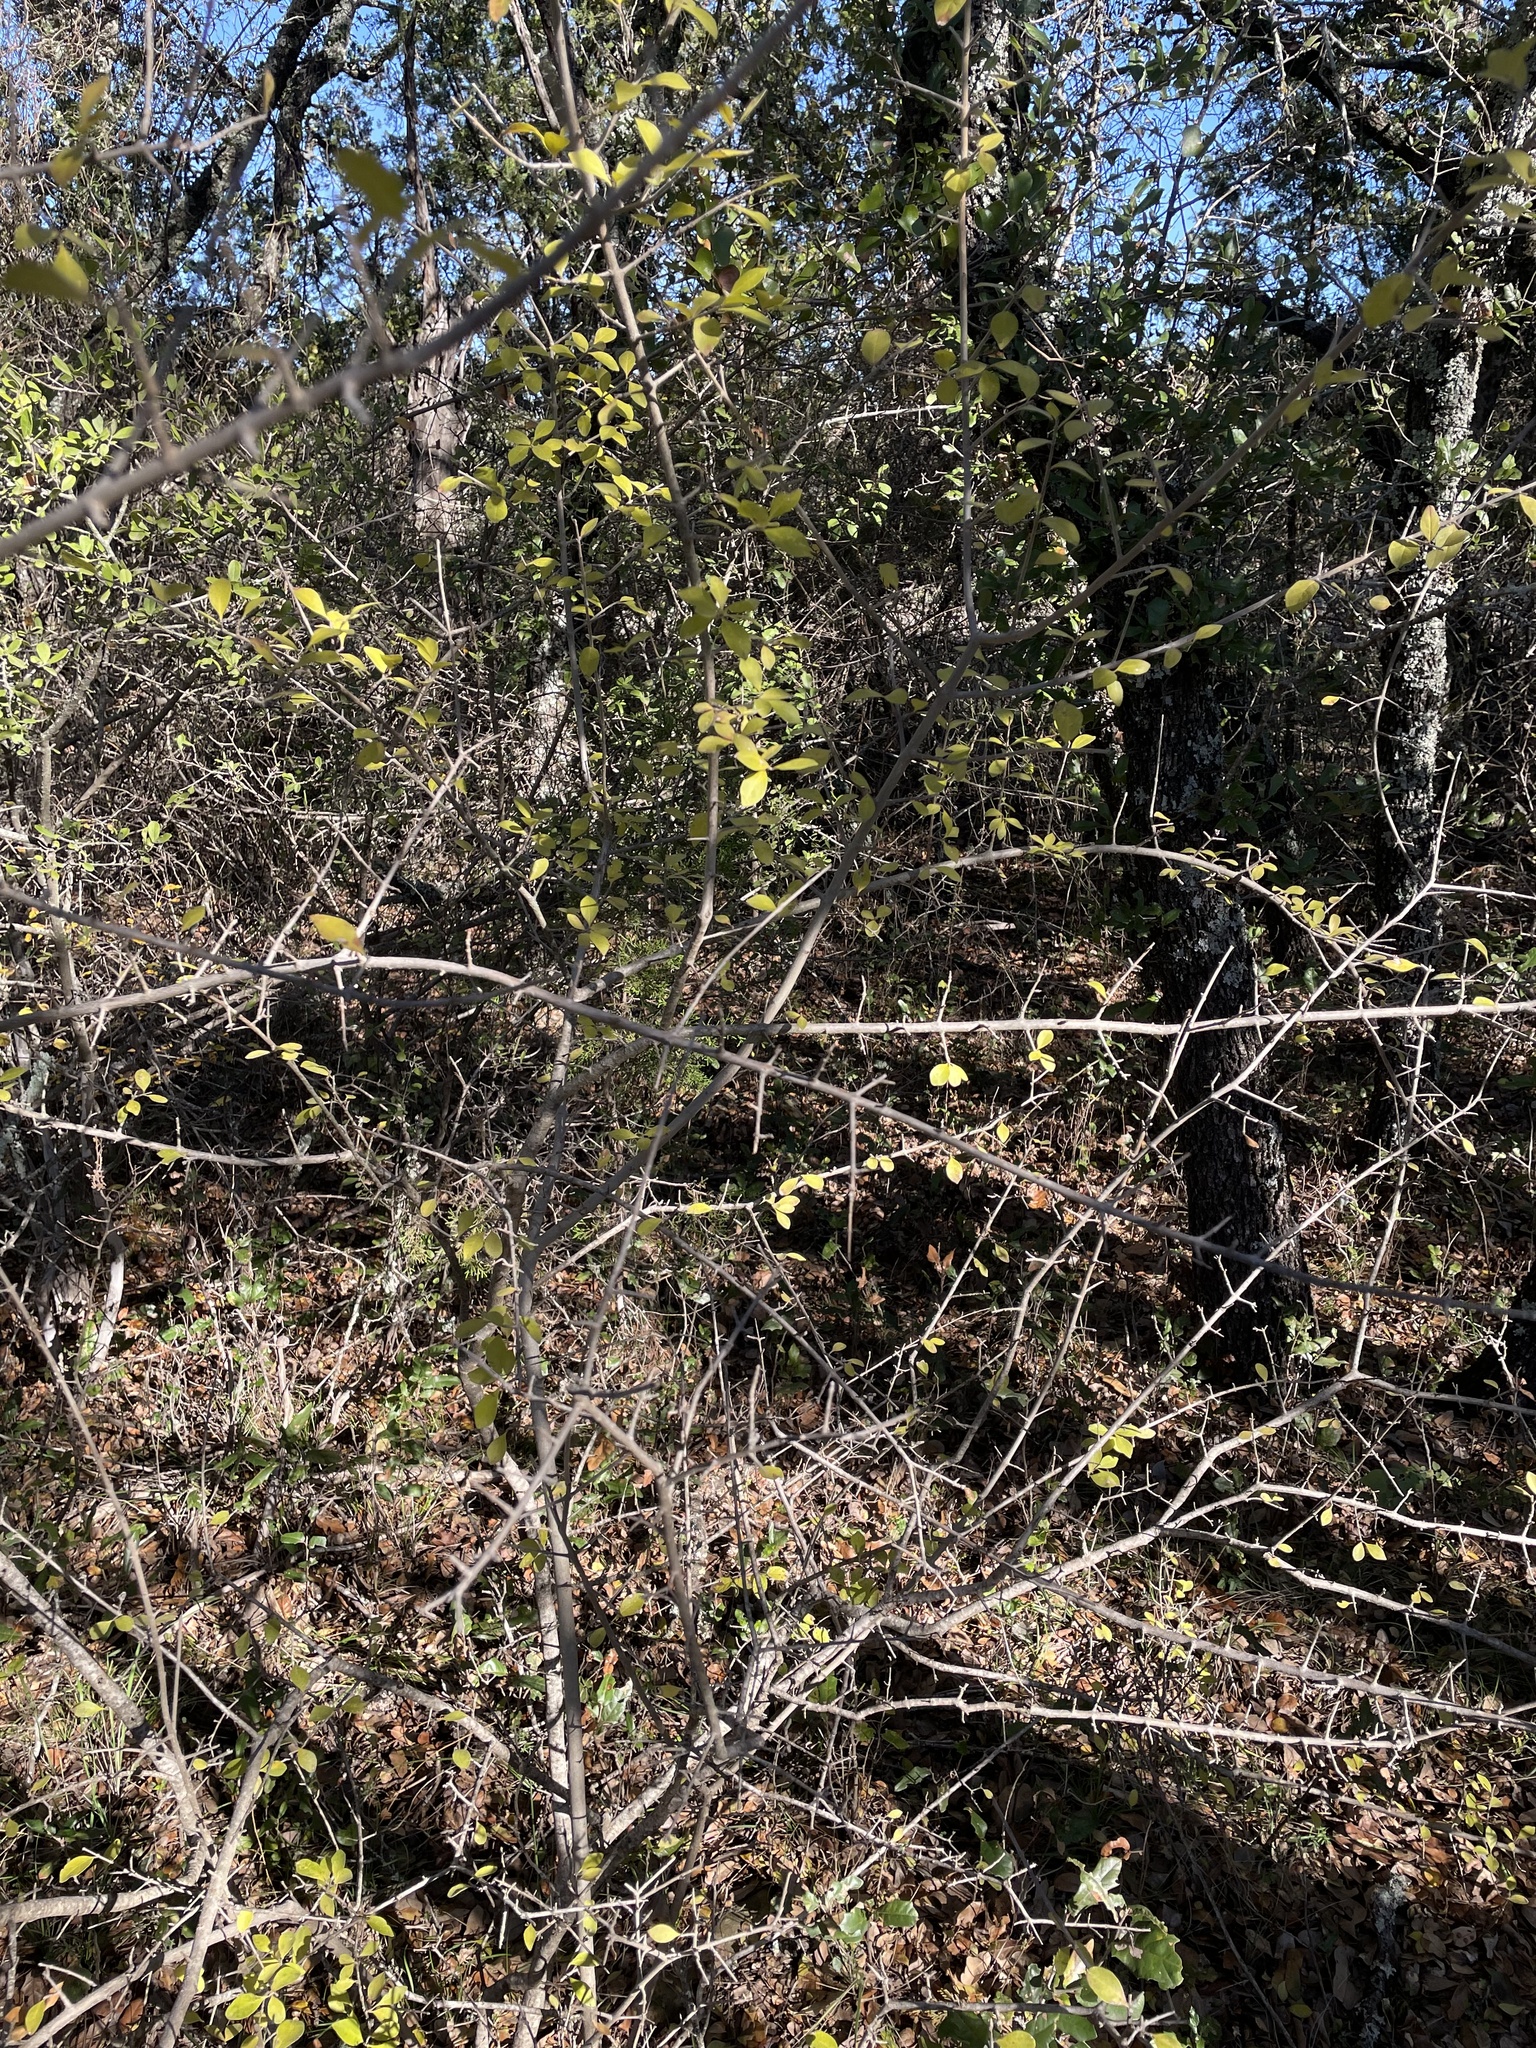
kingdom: Plantae
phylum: Tracheophyta
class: Magnoliopsida
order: Lamiales
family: Oleaceae
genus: Forestiera
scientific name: Forestiera pubescens
